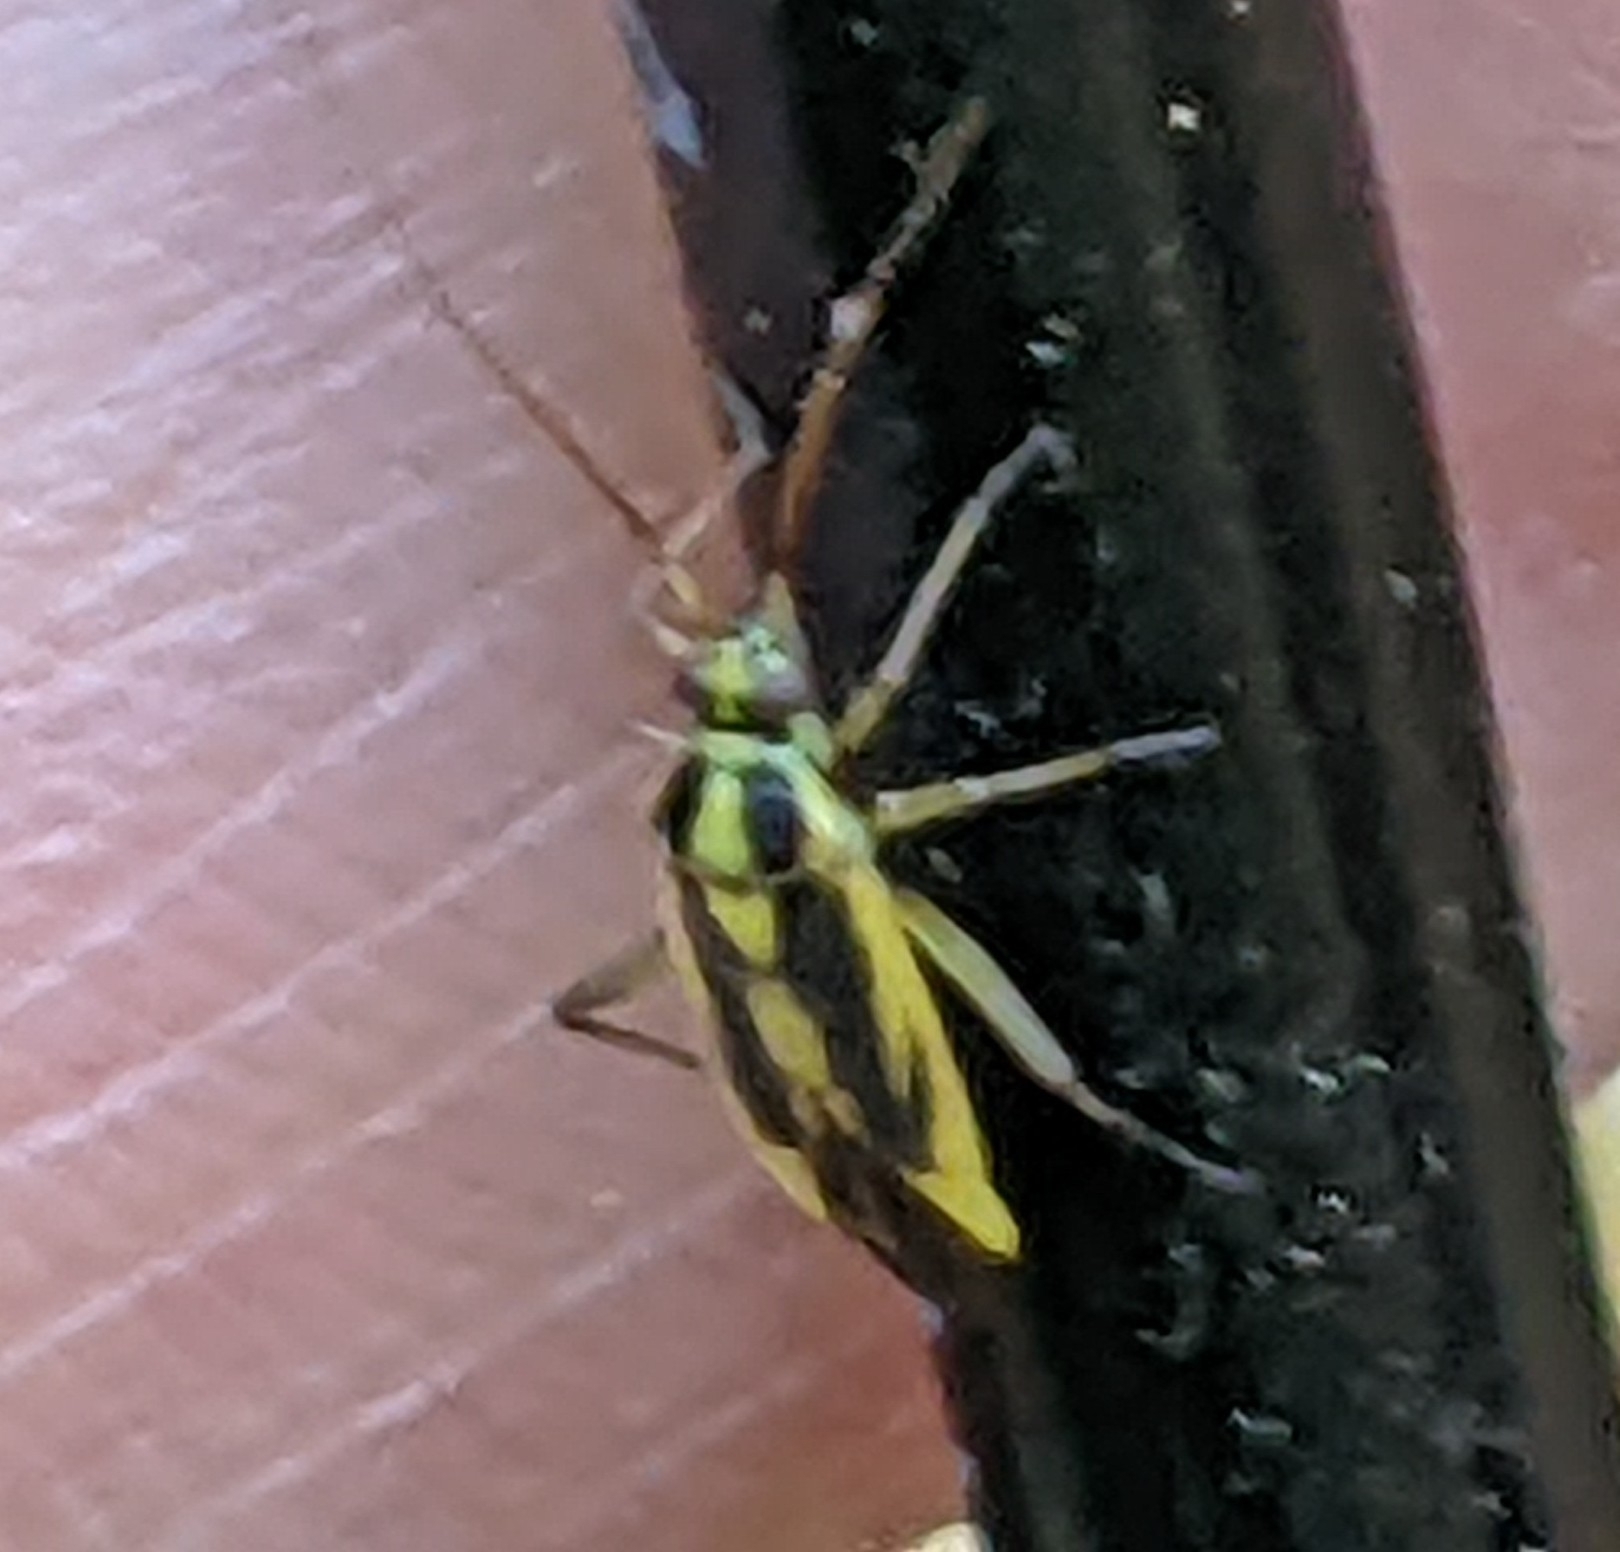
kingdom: Animalia
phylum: Arthropoda
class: Insecta
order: Hemiptera
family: Miridae
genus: Stenotus
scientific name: Stenotus binotatus
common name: Plant bug
